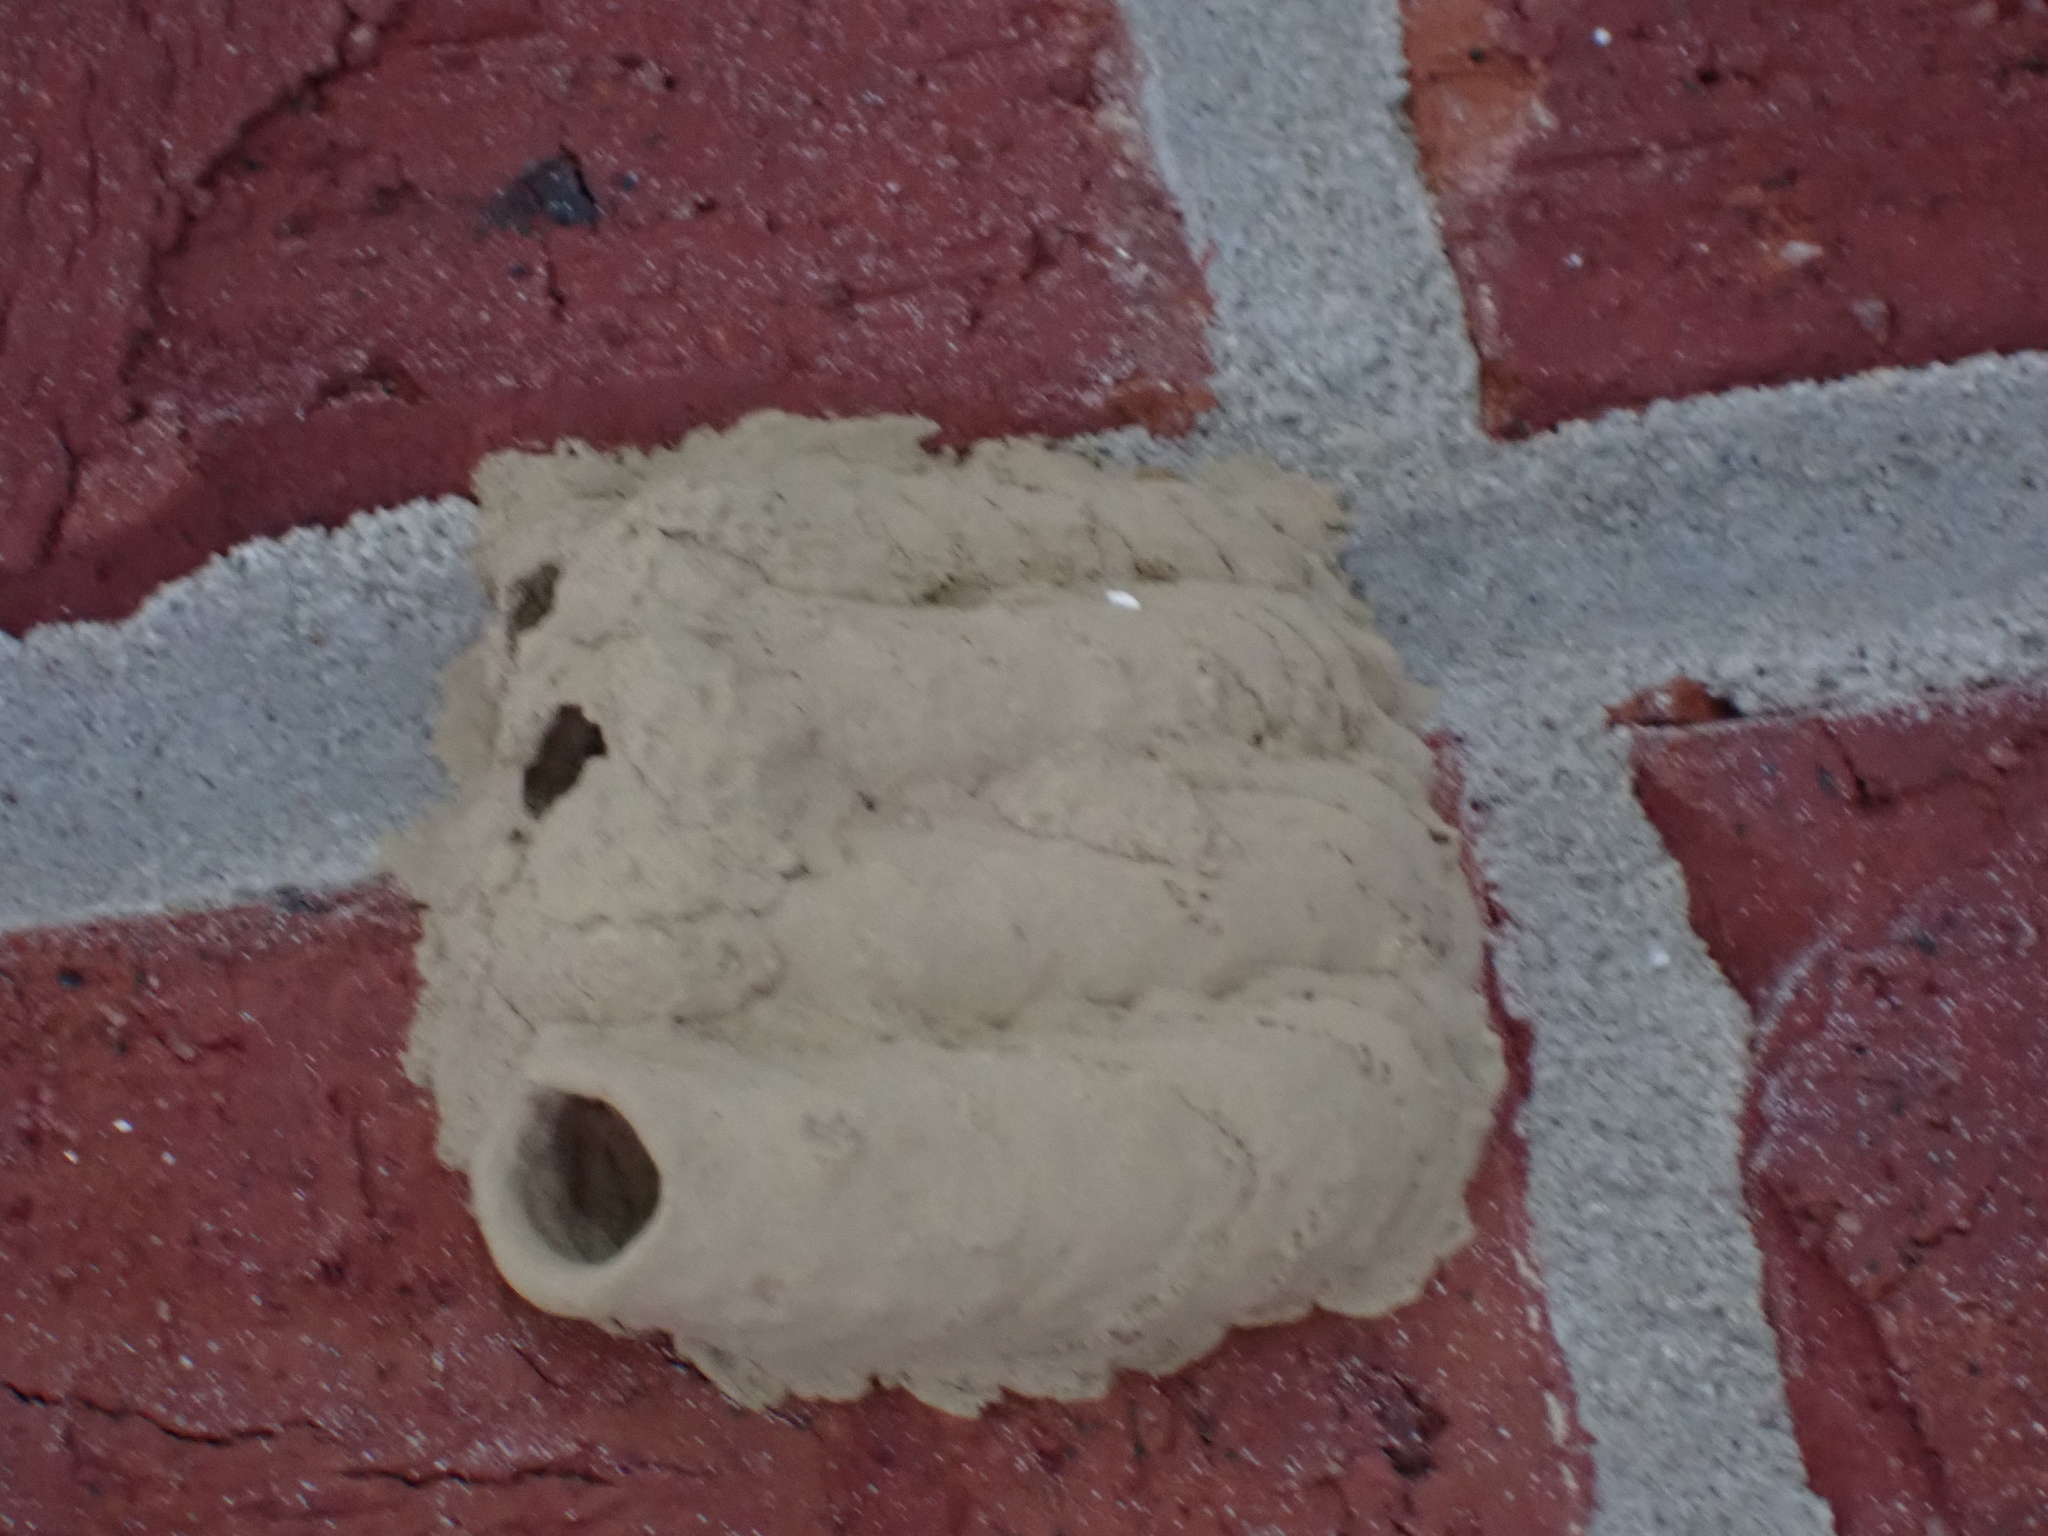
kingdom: Animalia
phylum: Arthropoda
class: Insecta
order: Hymenoptera
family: Sphecidae
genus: Sceliphron
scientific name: Sceliphron caementarium
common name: Mud dauber
